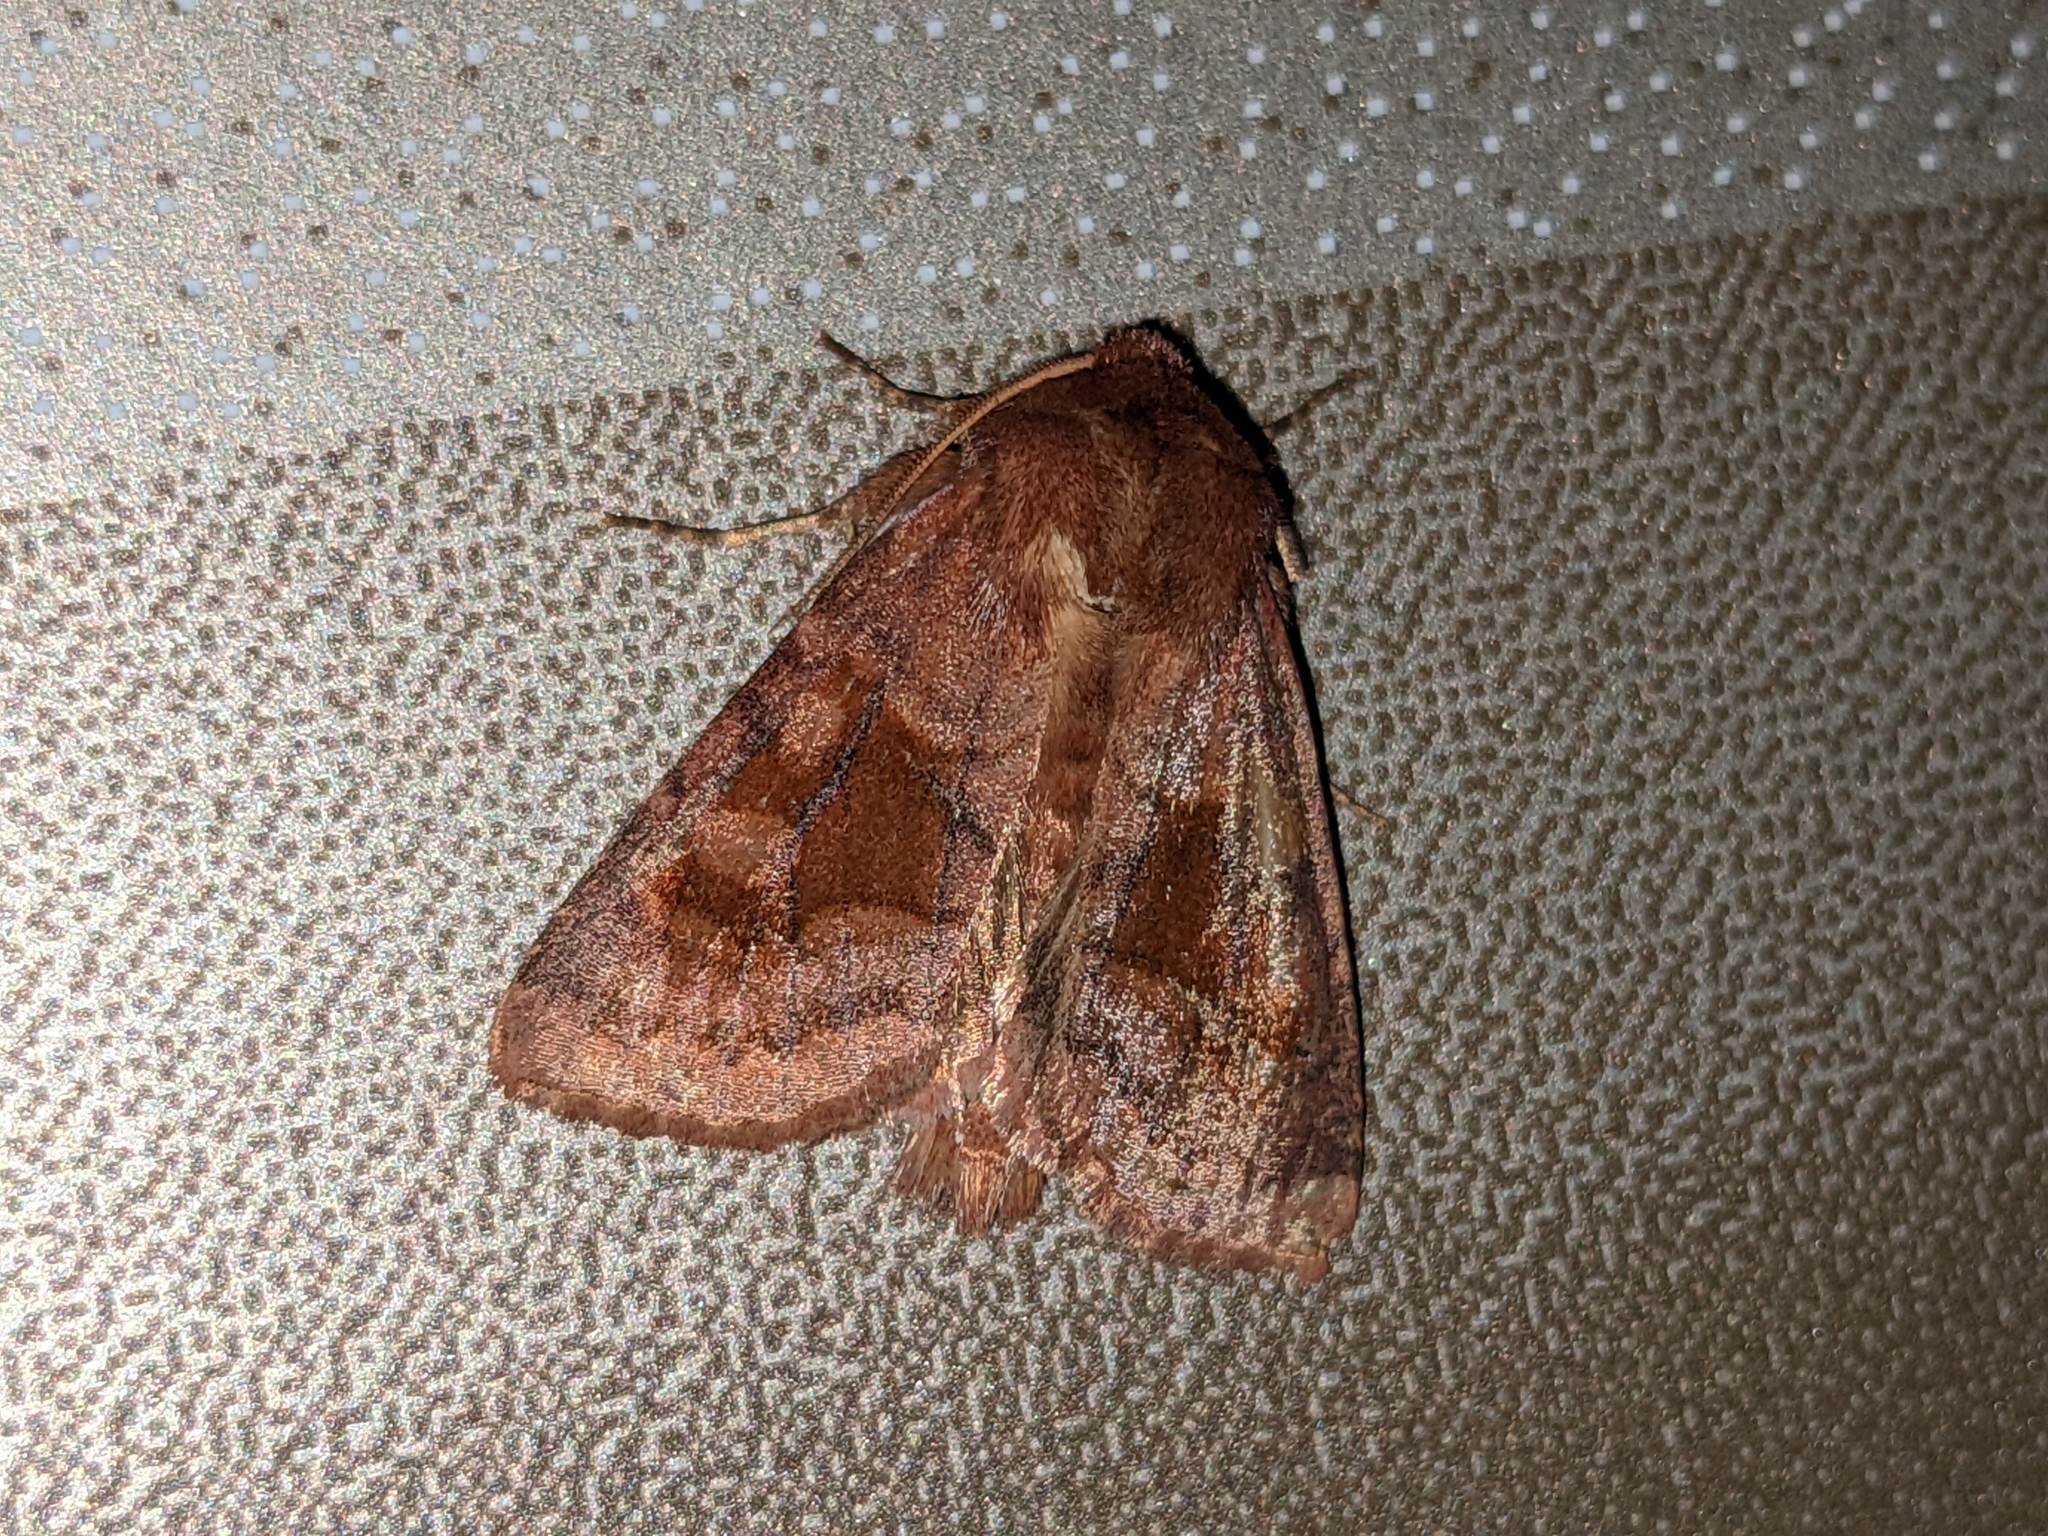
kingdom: Animalia
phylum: Arthropoda
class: Insecta
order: Lepidoptera
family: Noctuidae
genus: Nephelodes
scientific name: Nephelodes minians
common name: Bronzed cutworm
